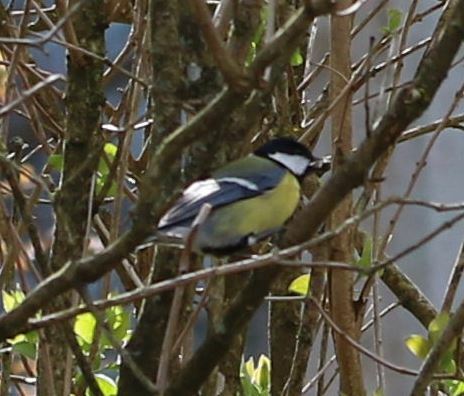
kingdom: Animalia
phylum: Chordata
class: Aves
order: Passeriformes
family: Paridae
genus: Parus
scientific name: Parus major
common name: Great tit
